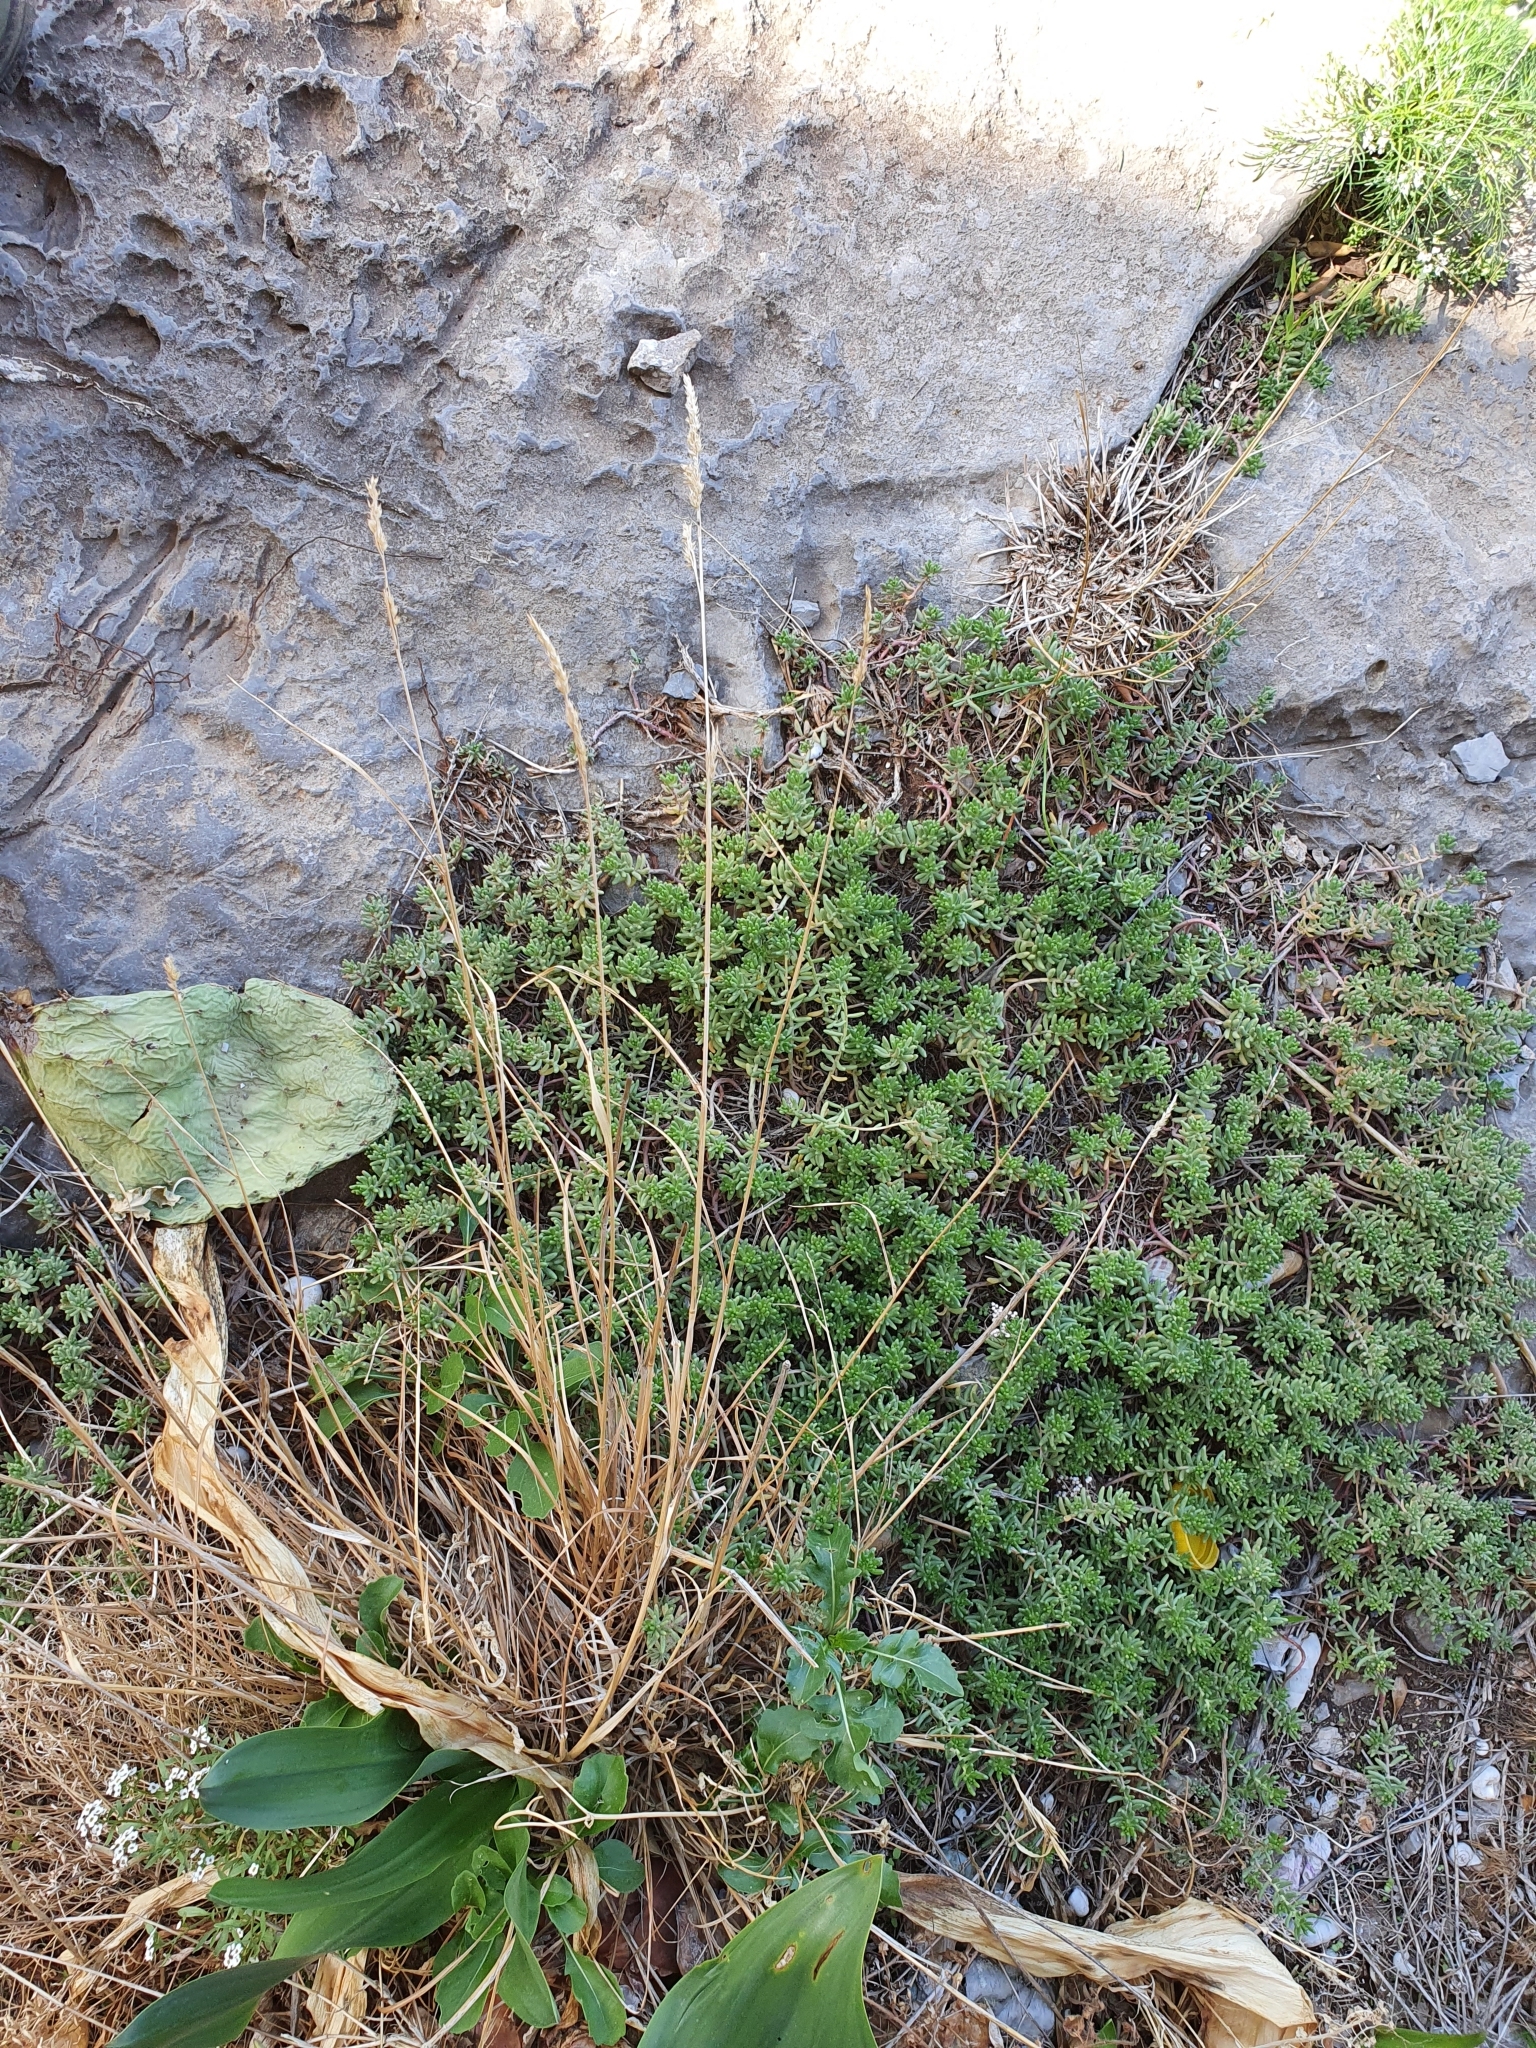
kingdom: Plantae
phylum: Tracheophyta
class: Magnoliopsida
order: Saxifragales
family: Crassulaceae
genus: Sedum
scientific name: Sedum album
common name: White stonecrop
